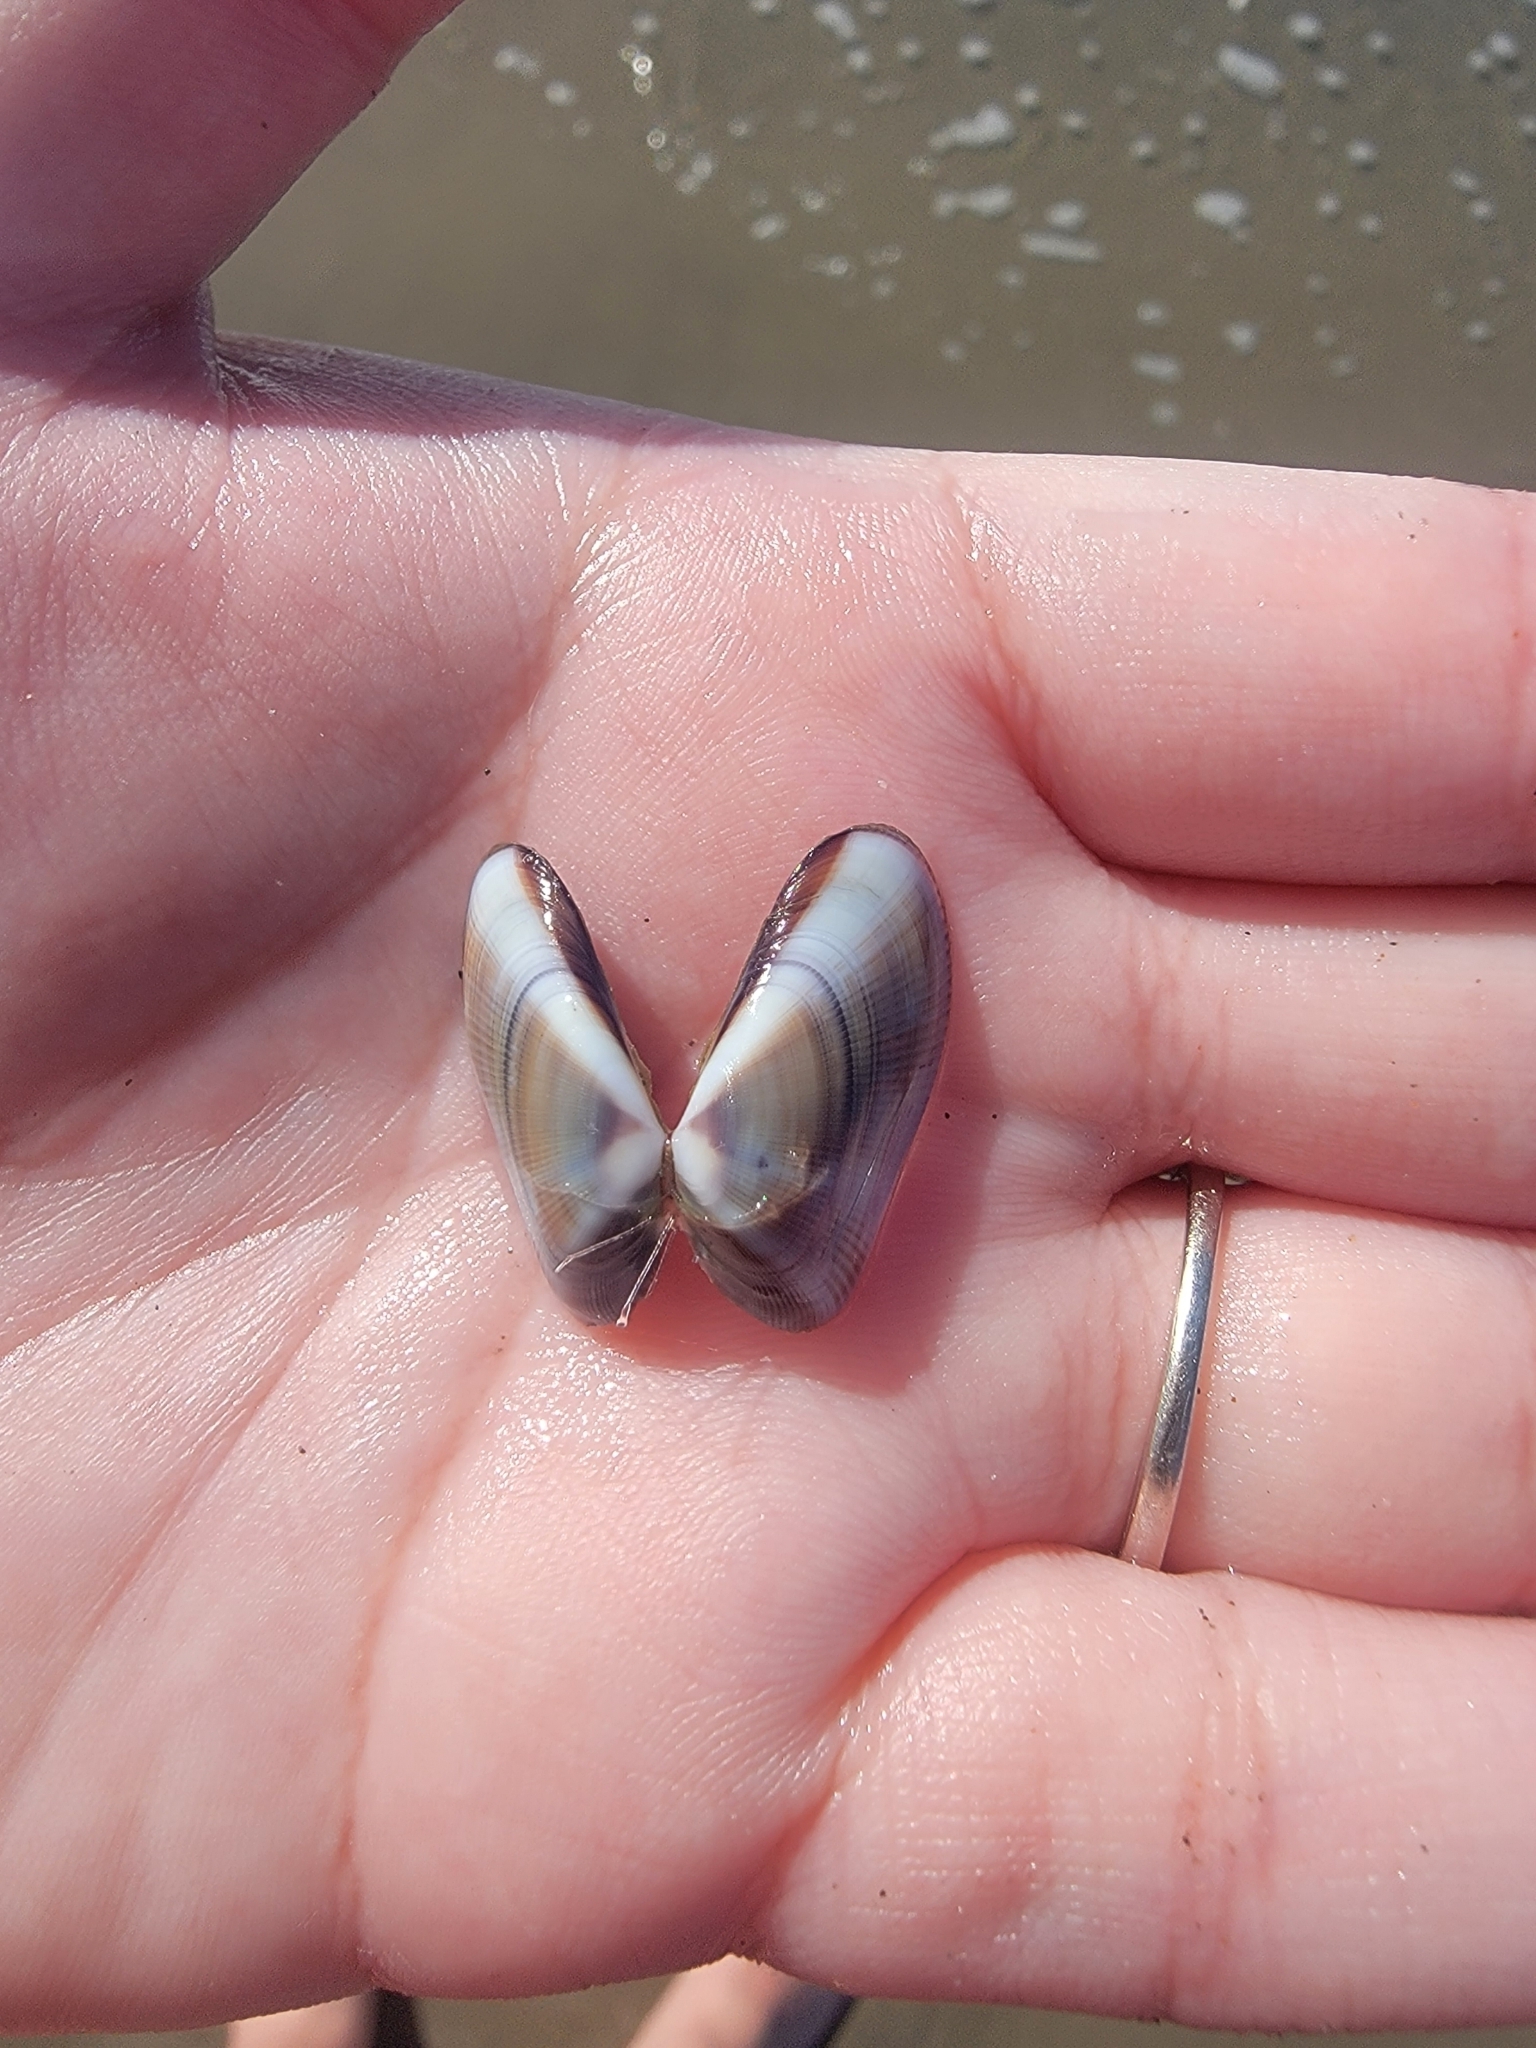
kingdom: Animalia
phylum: Mollusca
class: Bivalvia
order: Cardiida
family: Donacidae
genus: Donax
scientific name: Donax gouldii
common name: Gould beanclam
